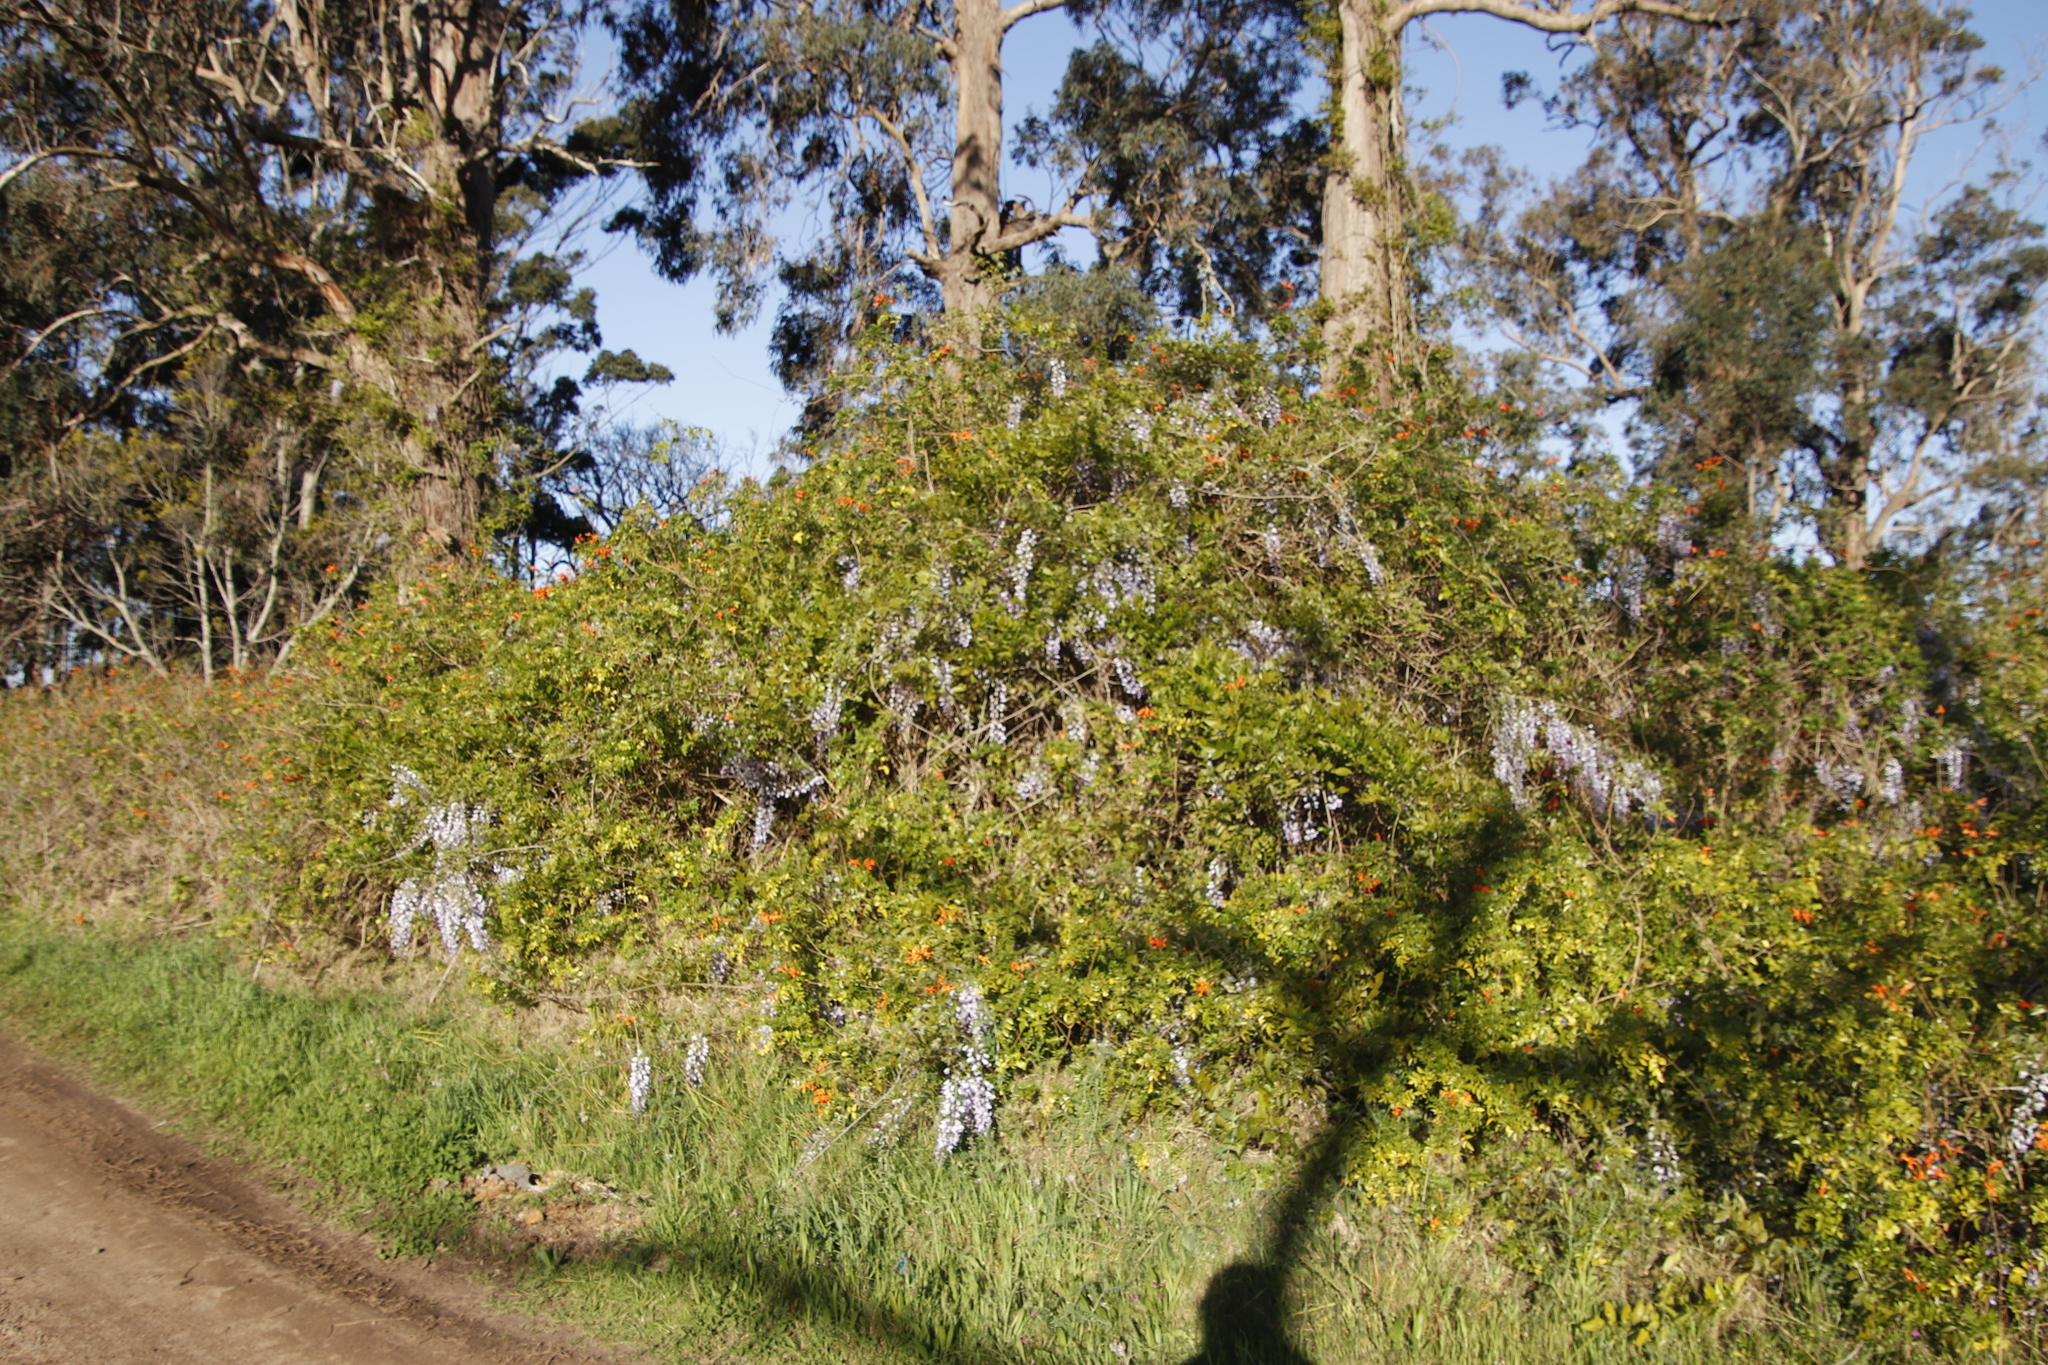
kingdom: Plantae
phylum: Tracheophyta
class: Magnoliopsida
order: Fabales
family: Fabaceae
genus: Bolusanthus
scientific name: Bolusanthus speciosus
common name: Tree wisteria
